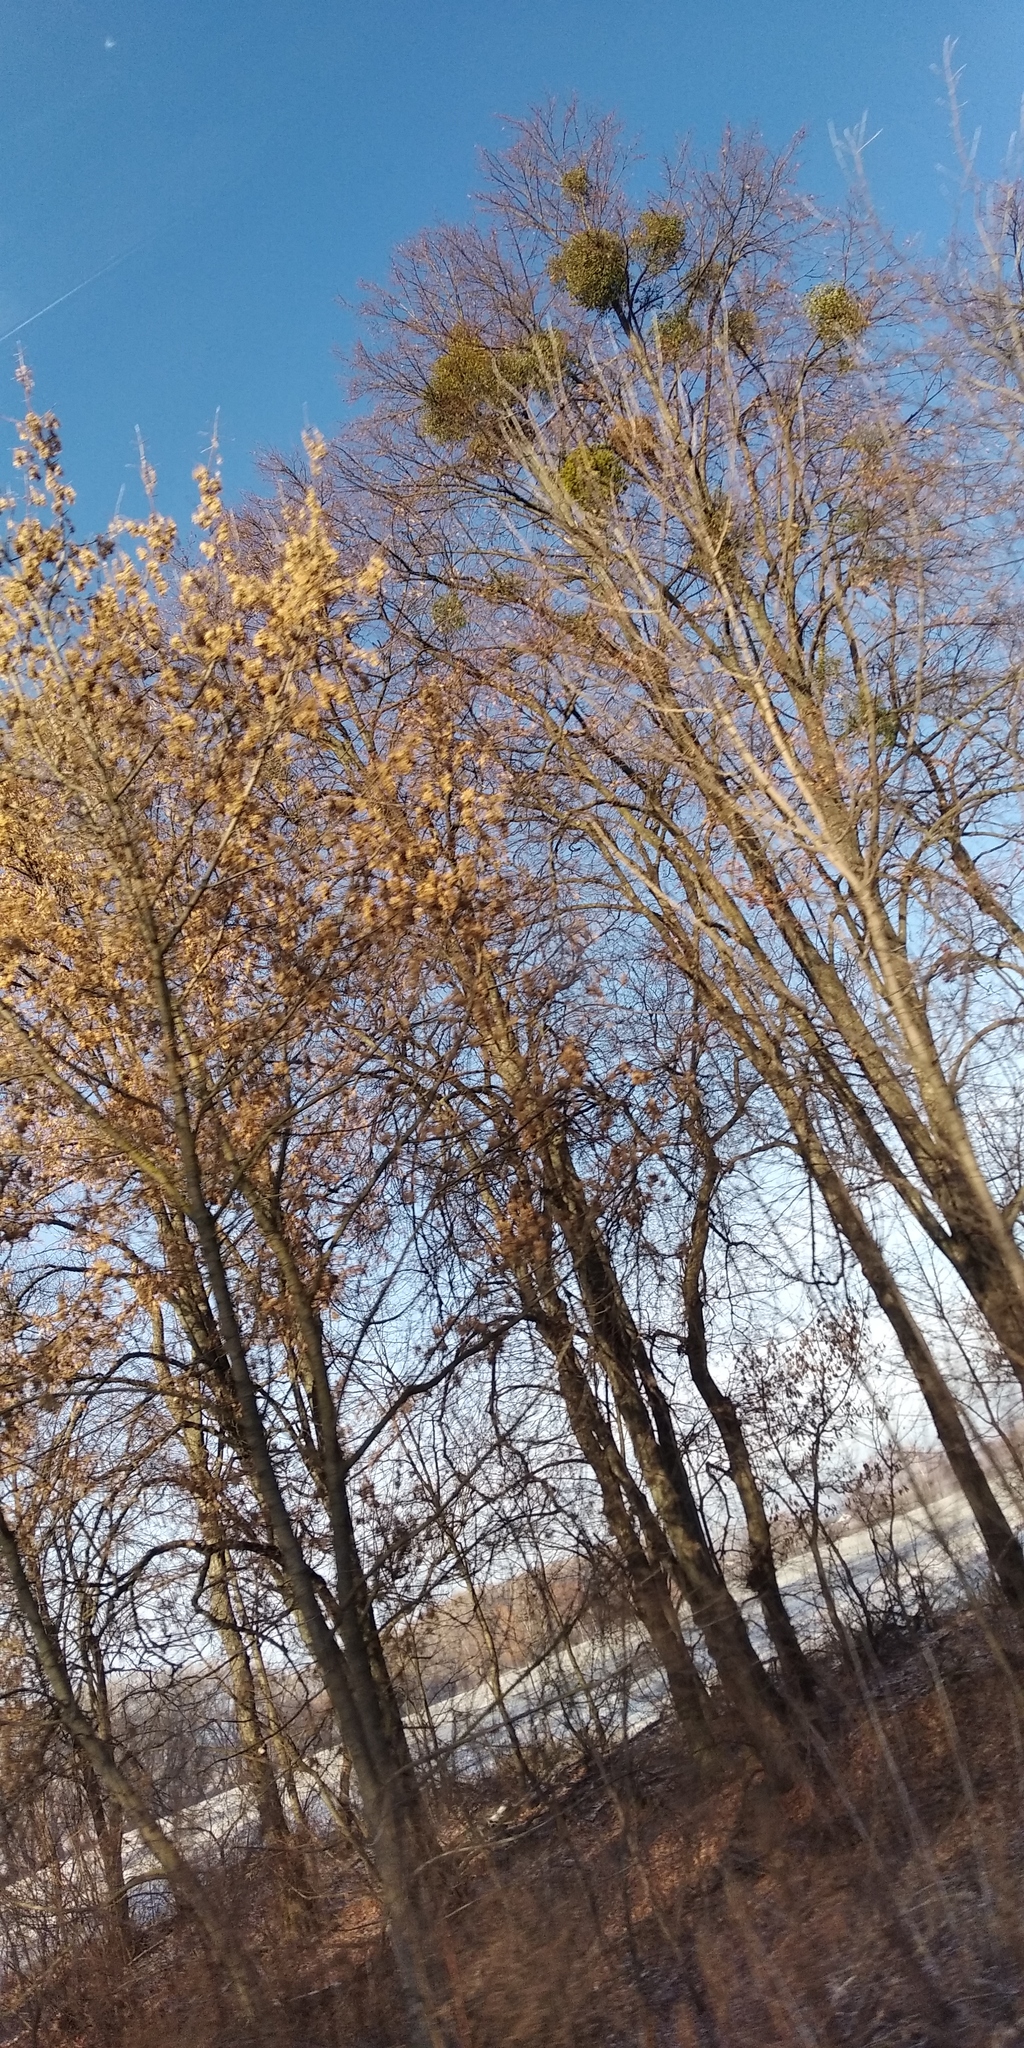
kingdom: Plantae
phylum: Tracheophyta
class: Magnoliopsida
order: Santalales
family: Viscaceae
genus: Viscum
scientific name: Viscum album
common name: Mistletoe
